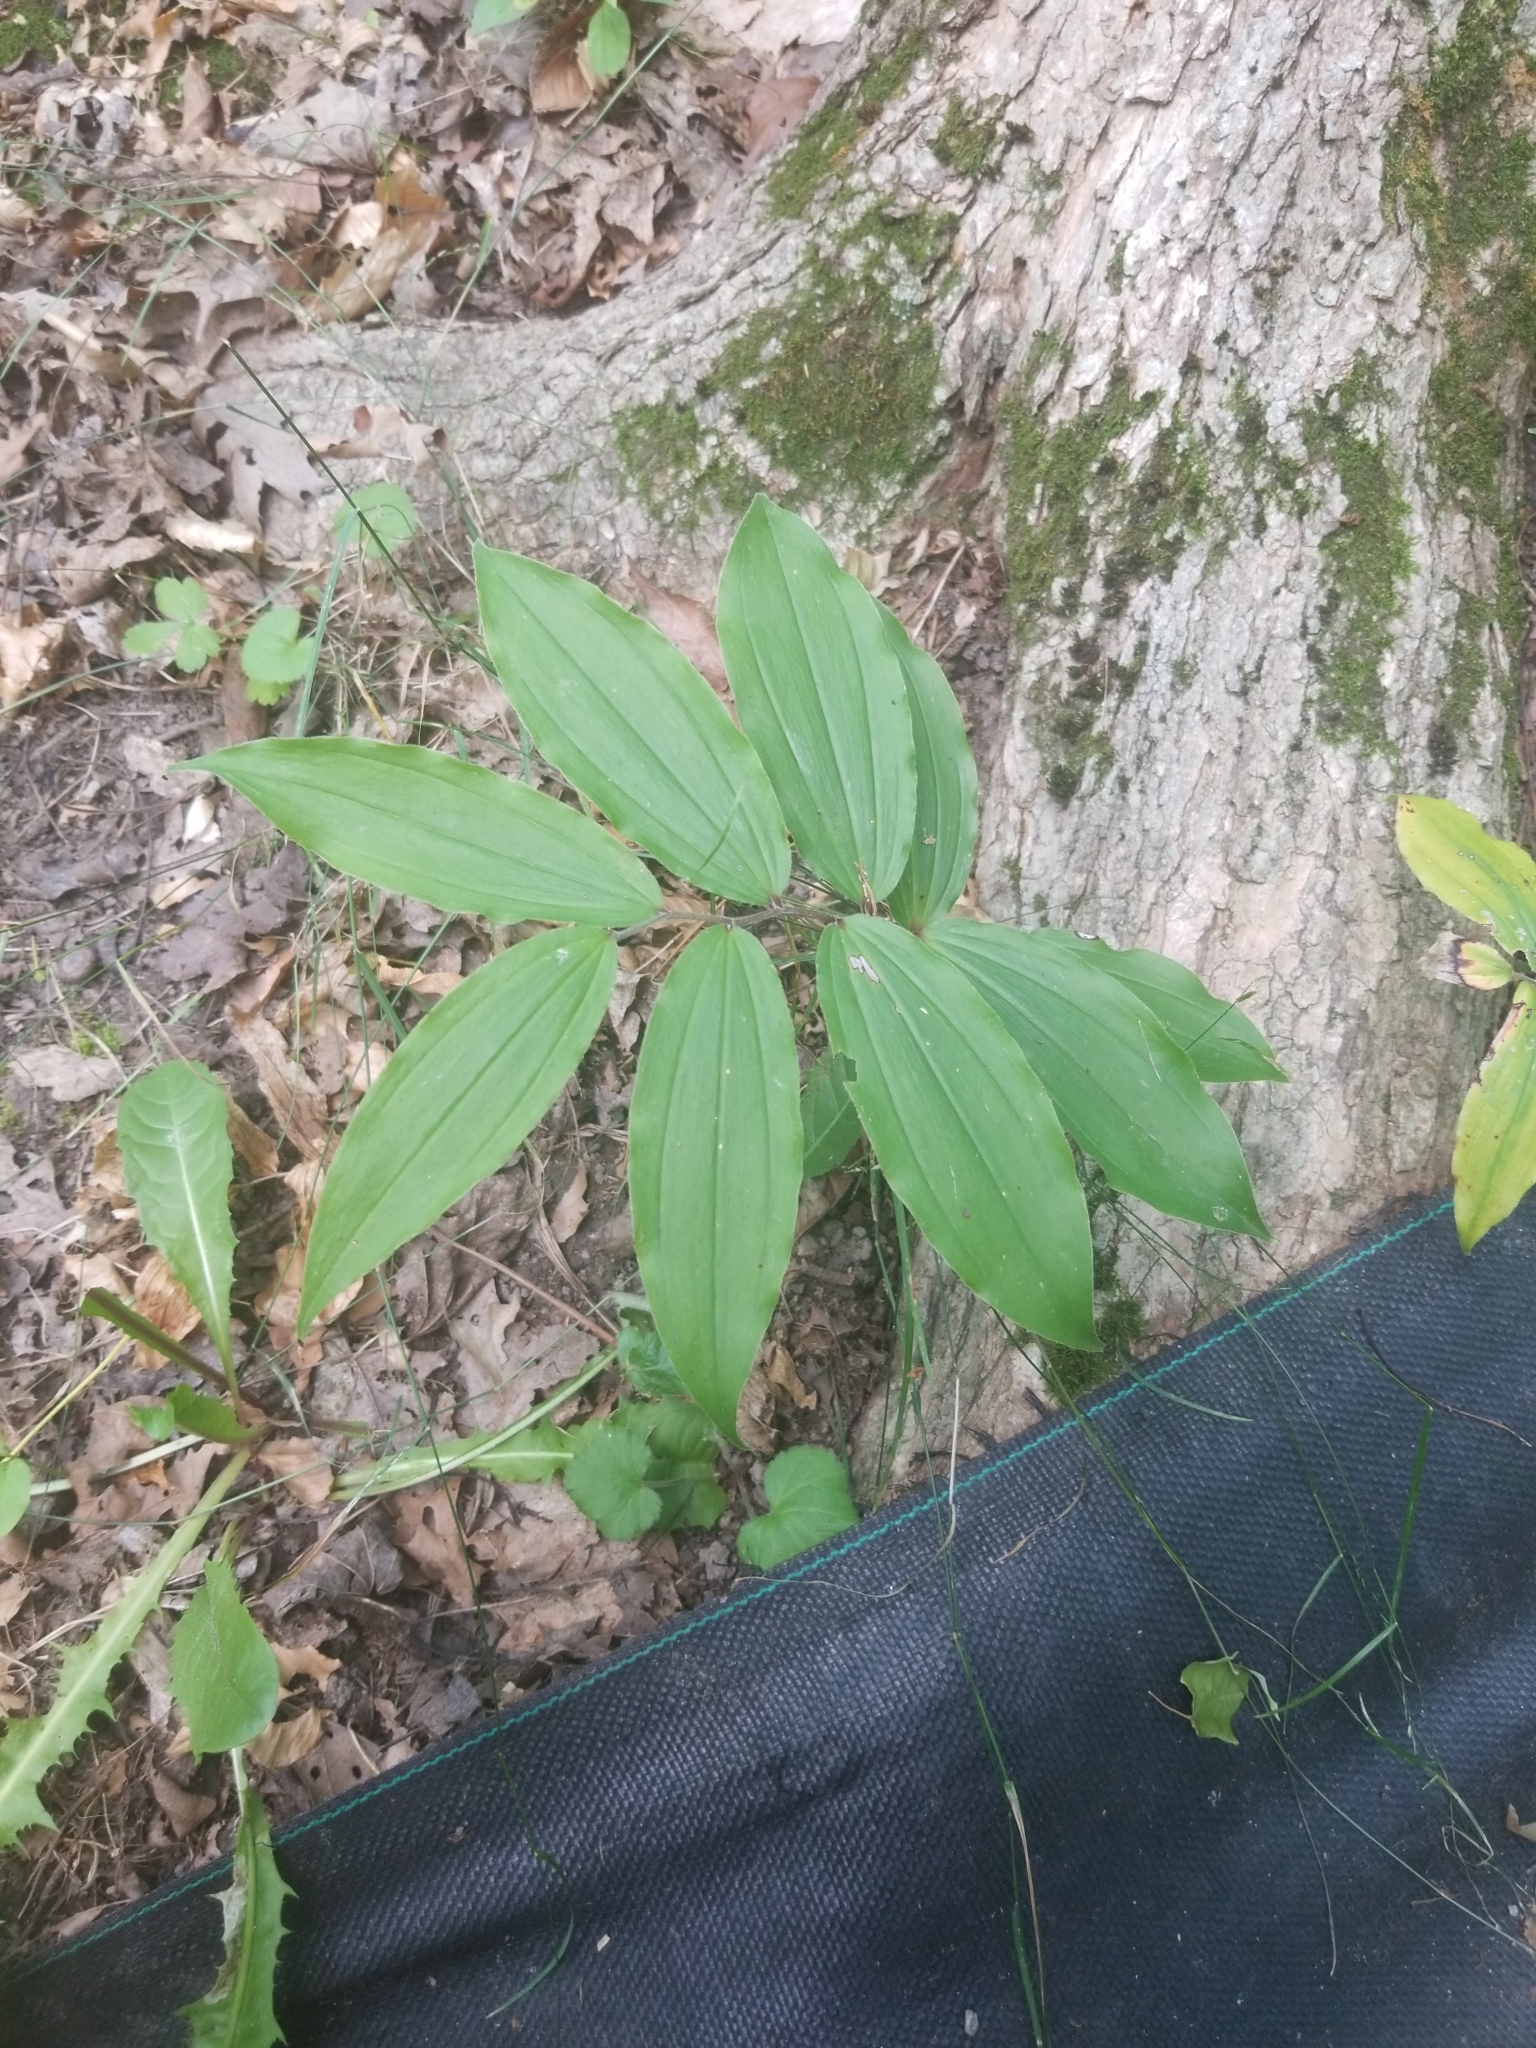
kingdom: Plantae
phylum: Tracheophyta
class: Liliopsida
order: Asparagales
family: Asparagaceae
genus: Maianthemum
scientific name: Maianthemum racemosum
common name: False spikenard
